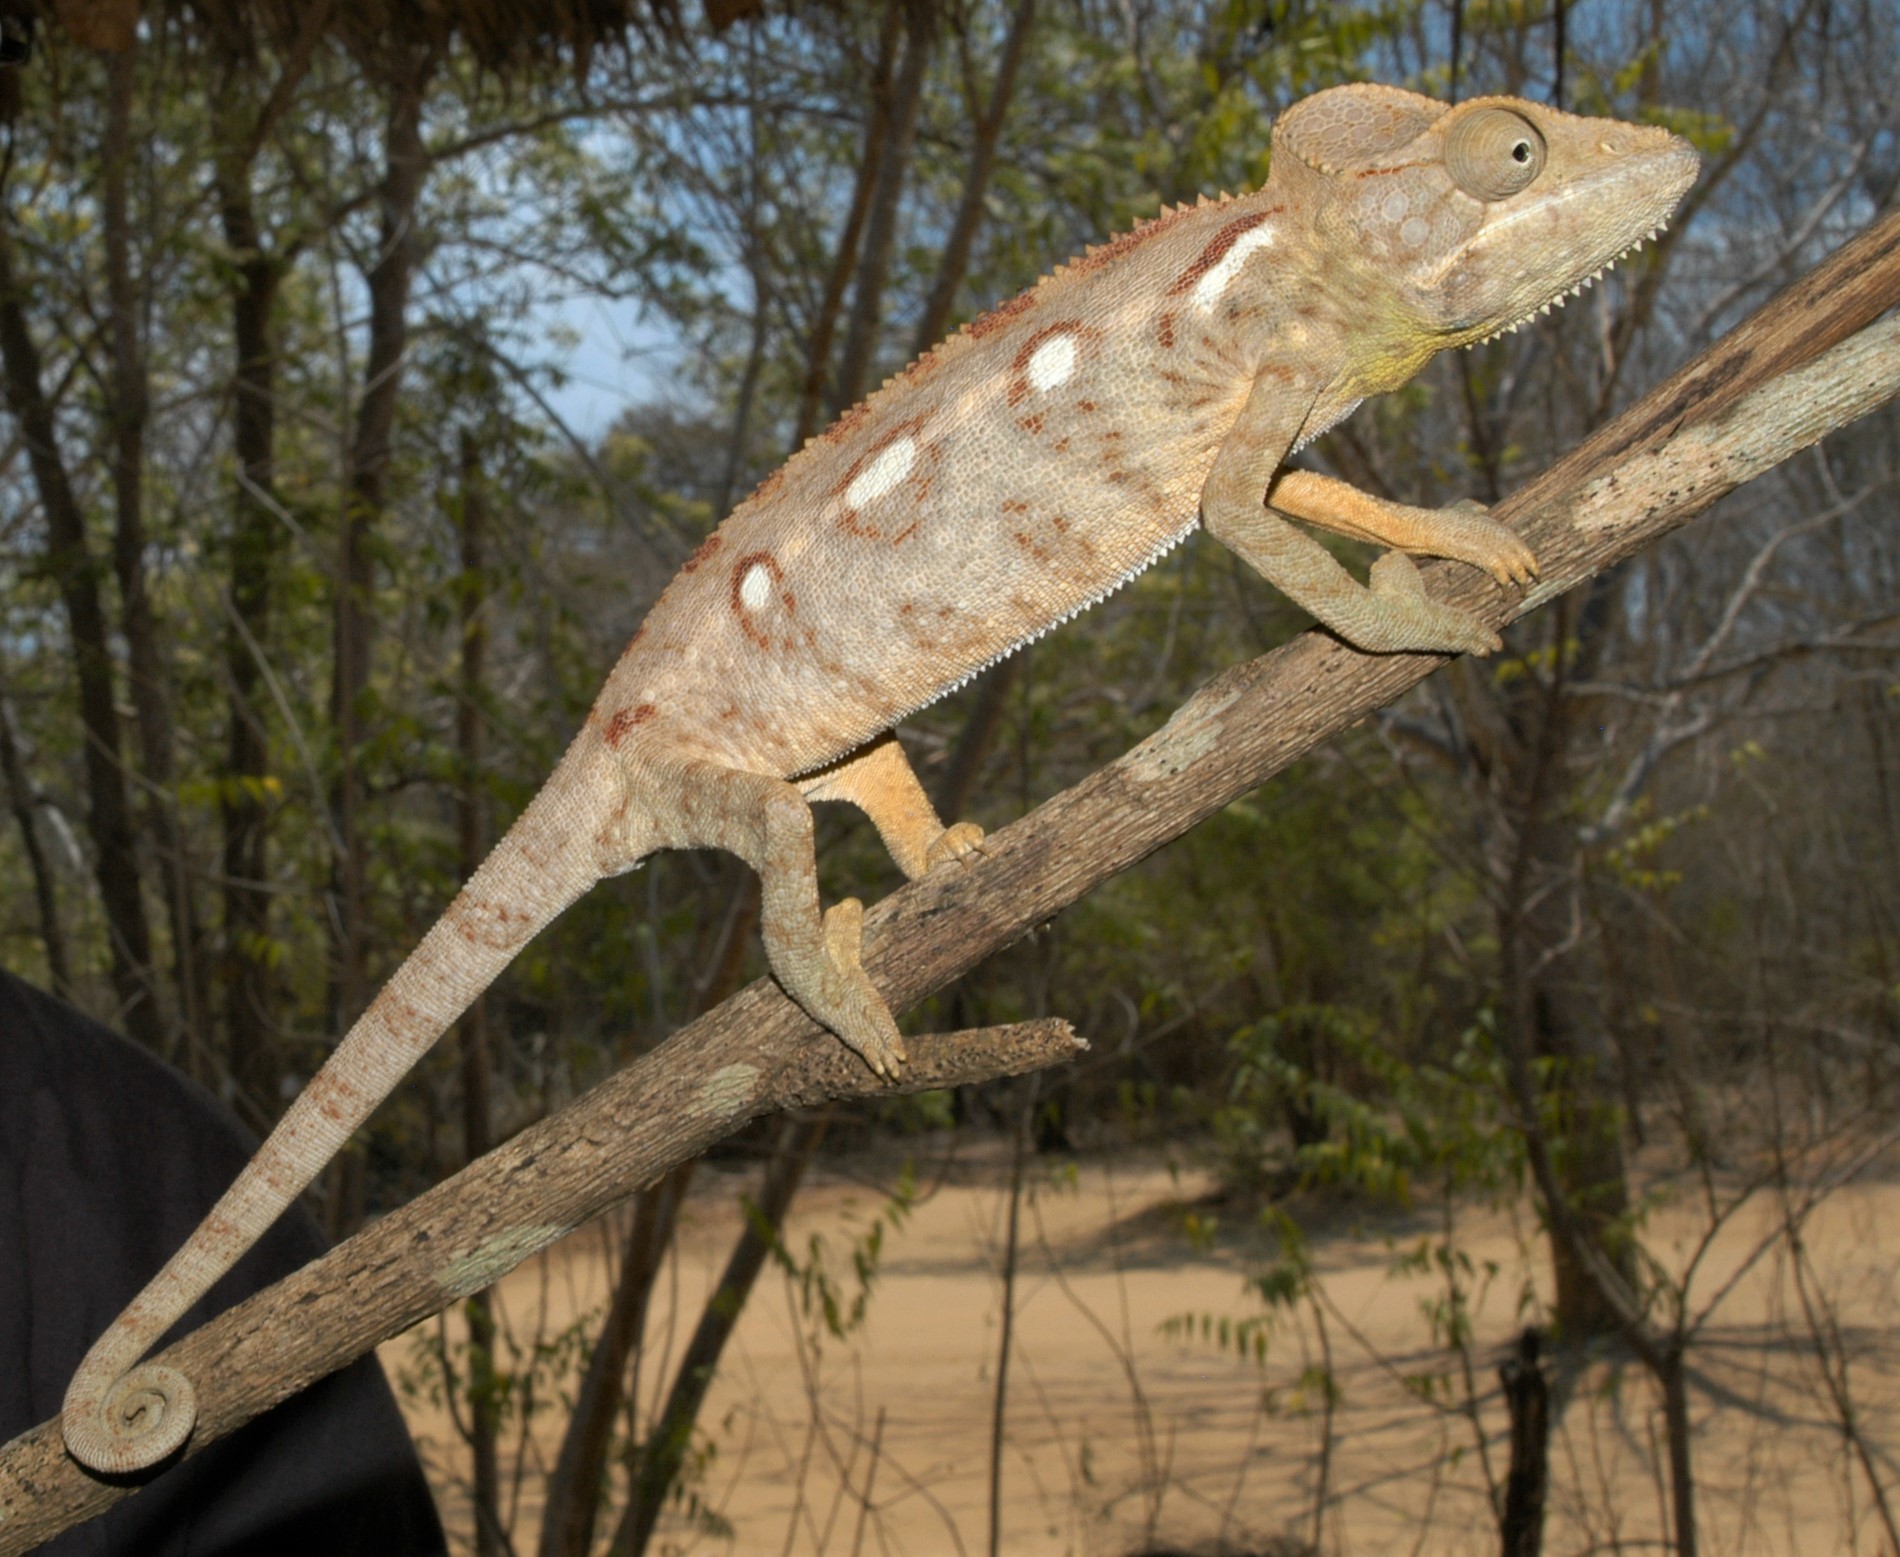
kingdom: Animalia
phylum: Chordata
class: Squamata
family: Chamaeleonidae
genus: Furcifer
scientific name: Furcifer oustaleti
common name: Oustalet's chameleon
